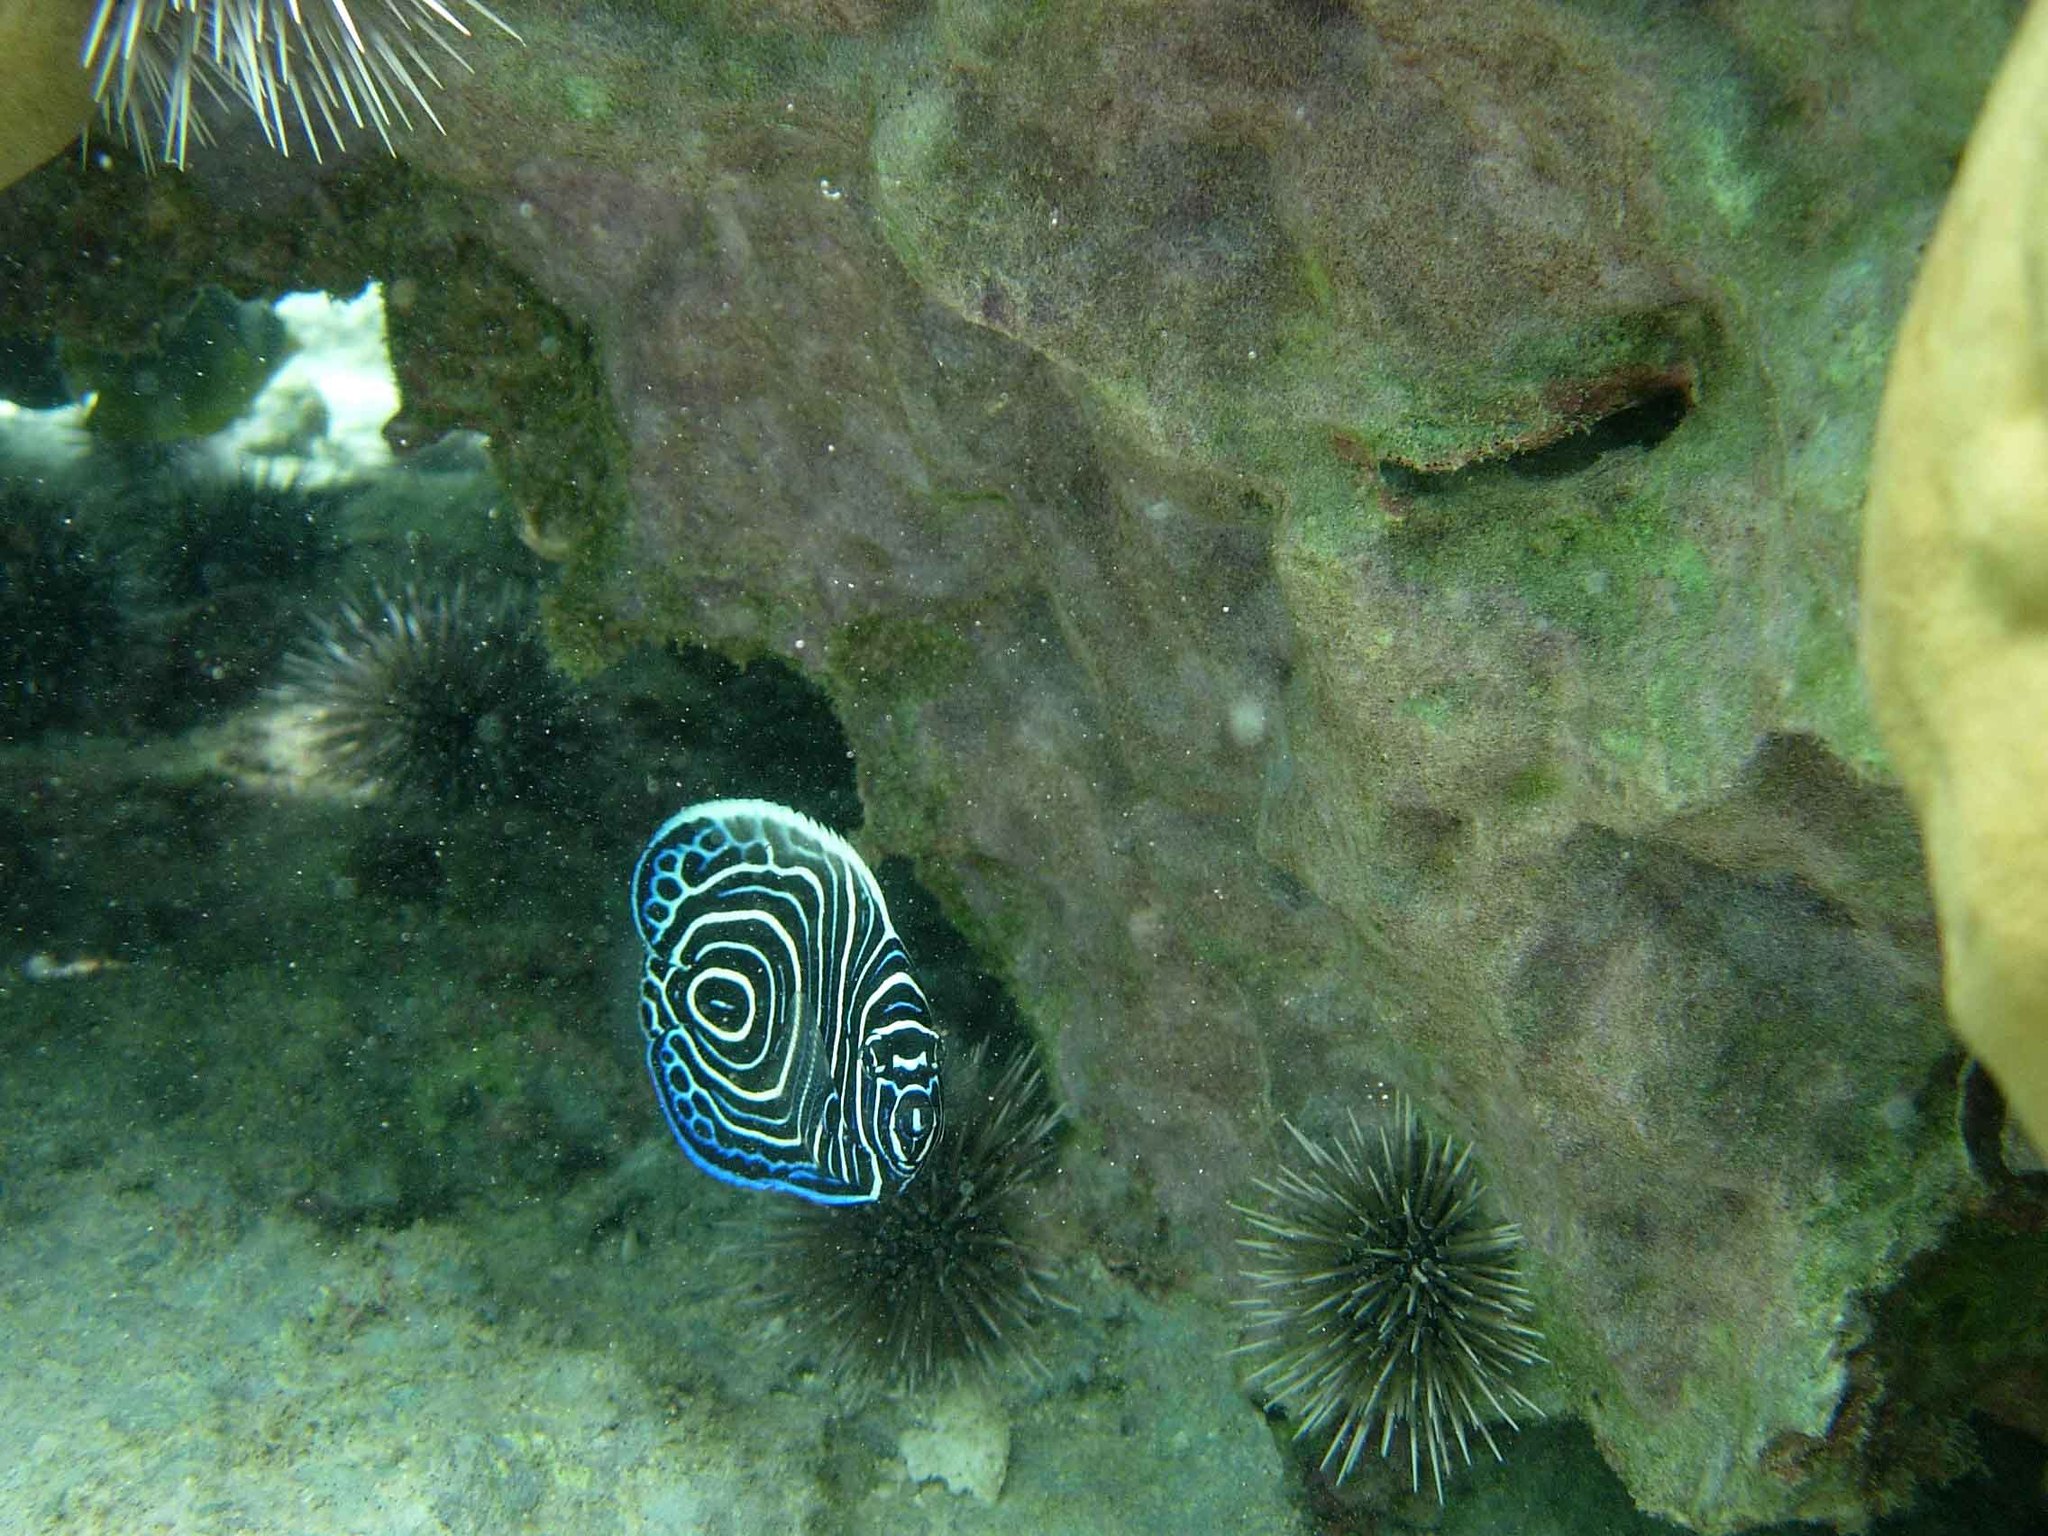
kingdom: Animalia
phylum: Chordata
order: Perciformes
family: Pomacanthidae
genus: Pomacanthus
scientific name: Pomacanthus imperator
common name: Emperor angelfish
